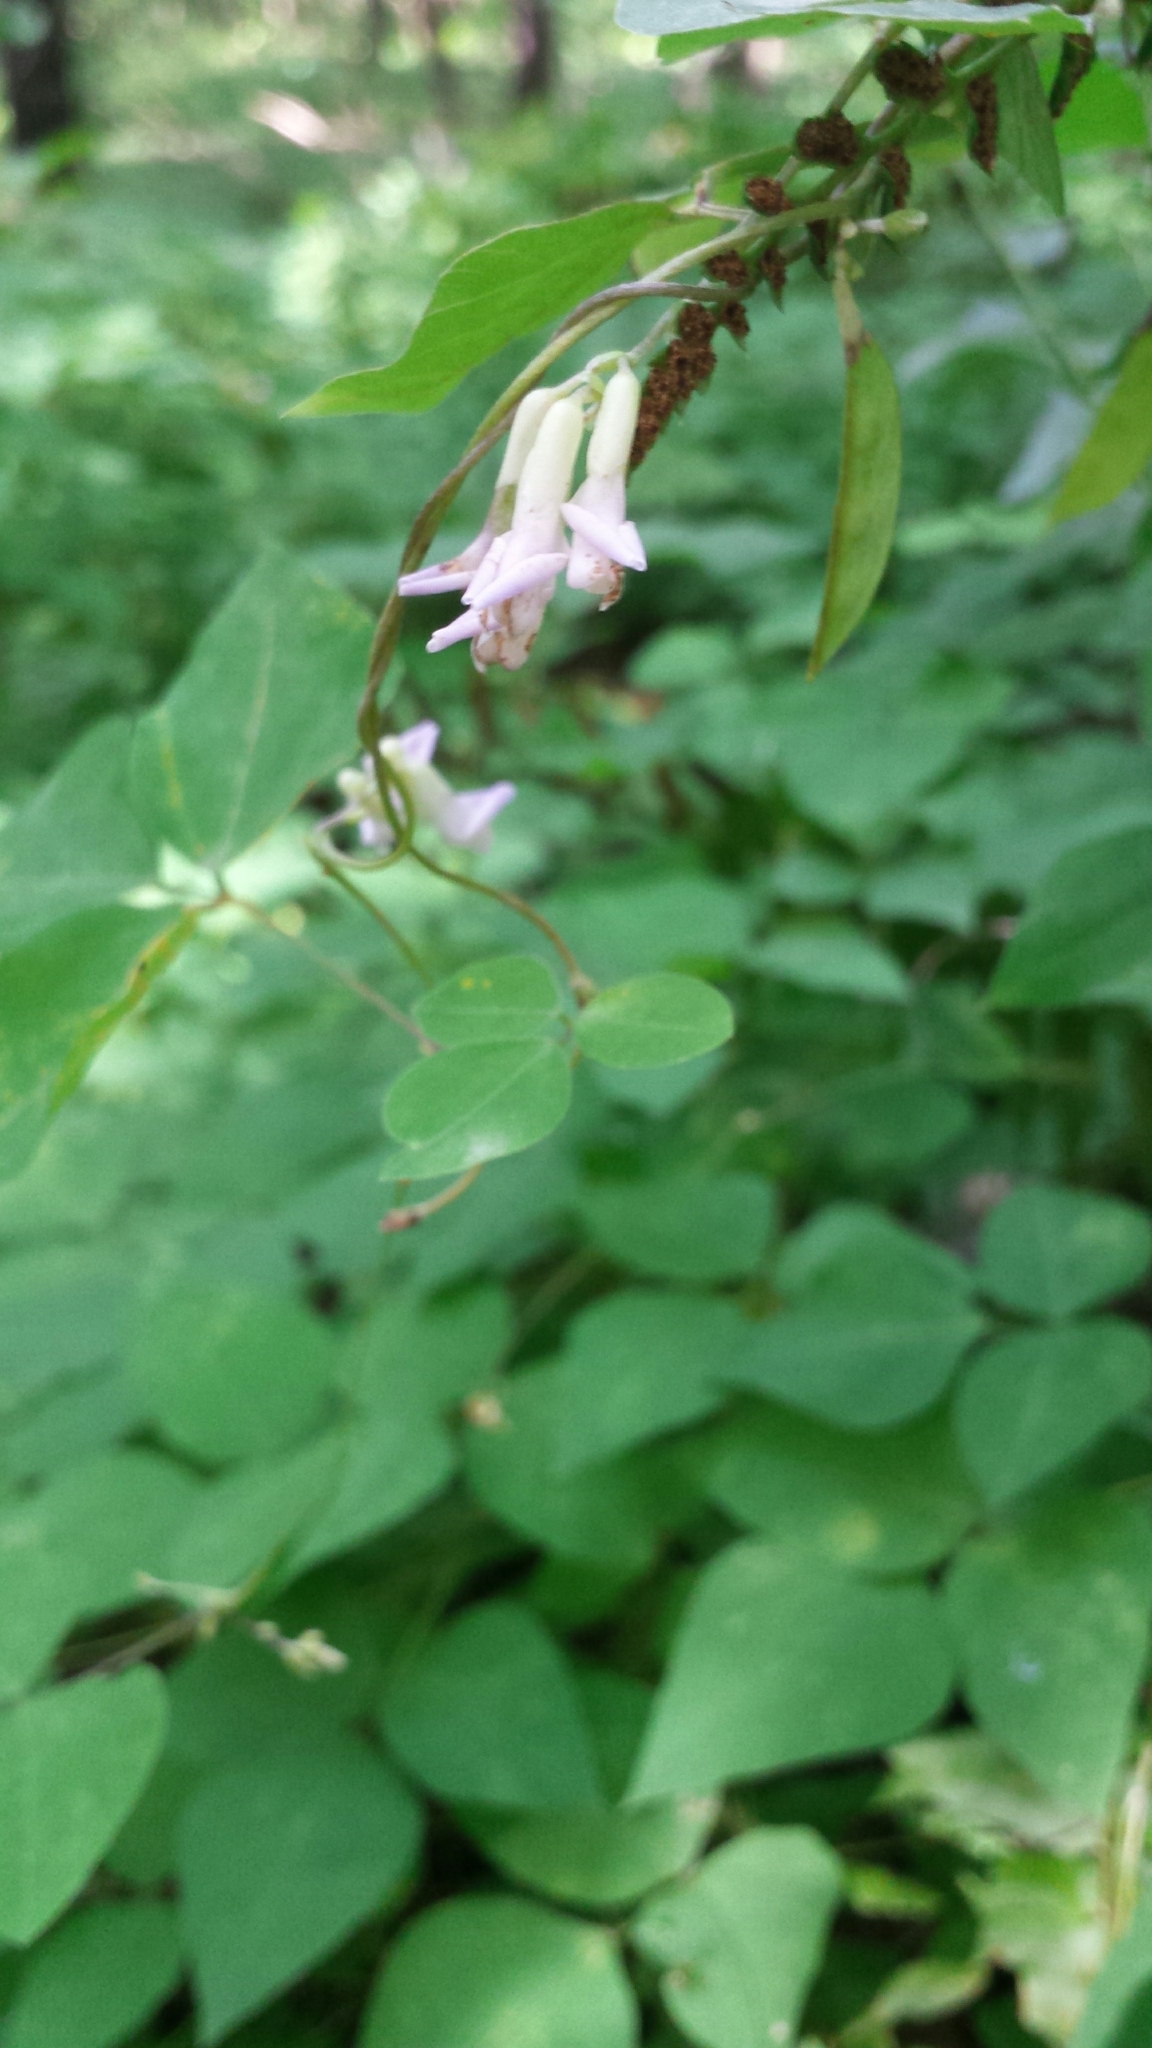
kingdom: Plantae
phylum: Tracheophyta
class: Magnoliopsida
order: Fabales
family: Fabaceae
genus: Amphicarpaea
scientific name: Amphicarpaea bracteata
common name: American hog peanut
